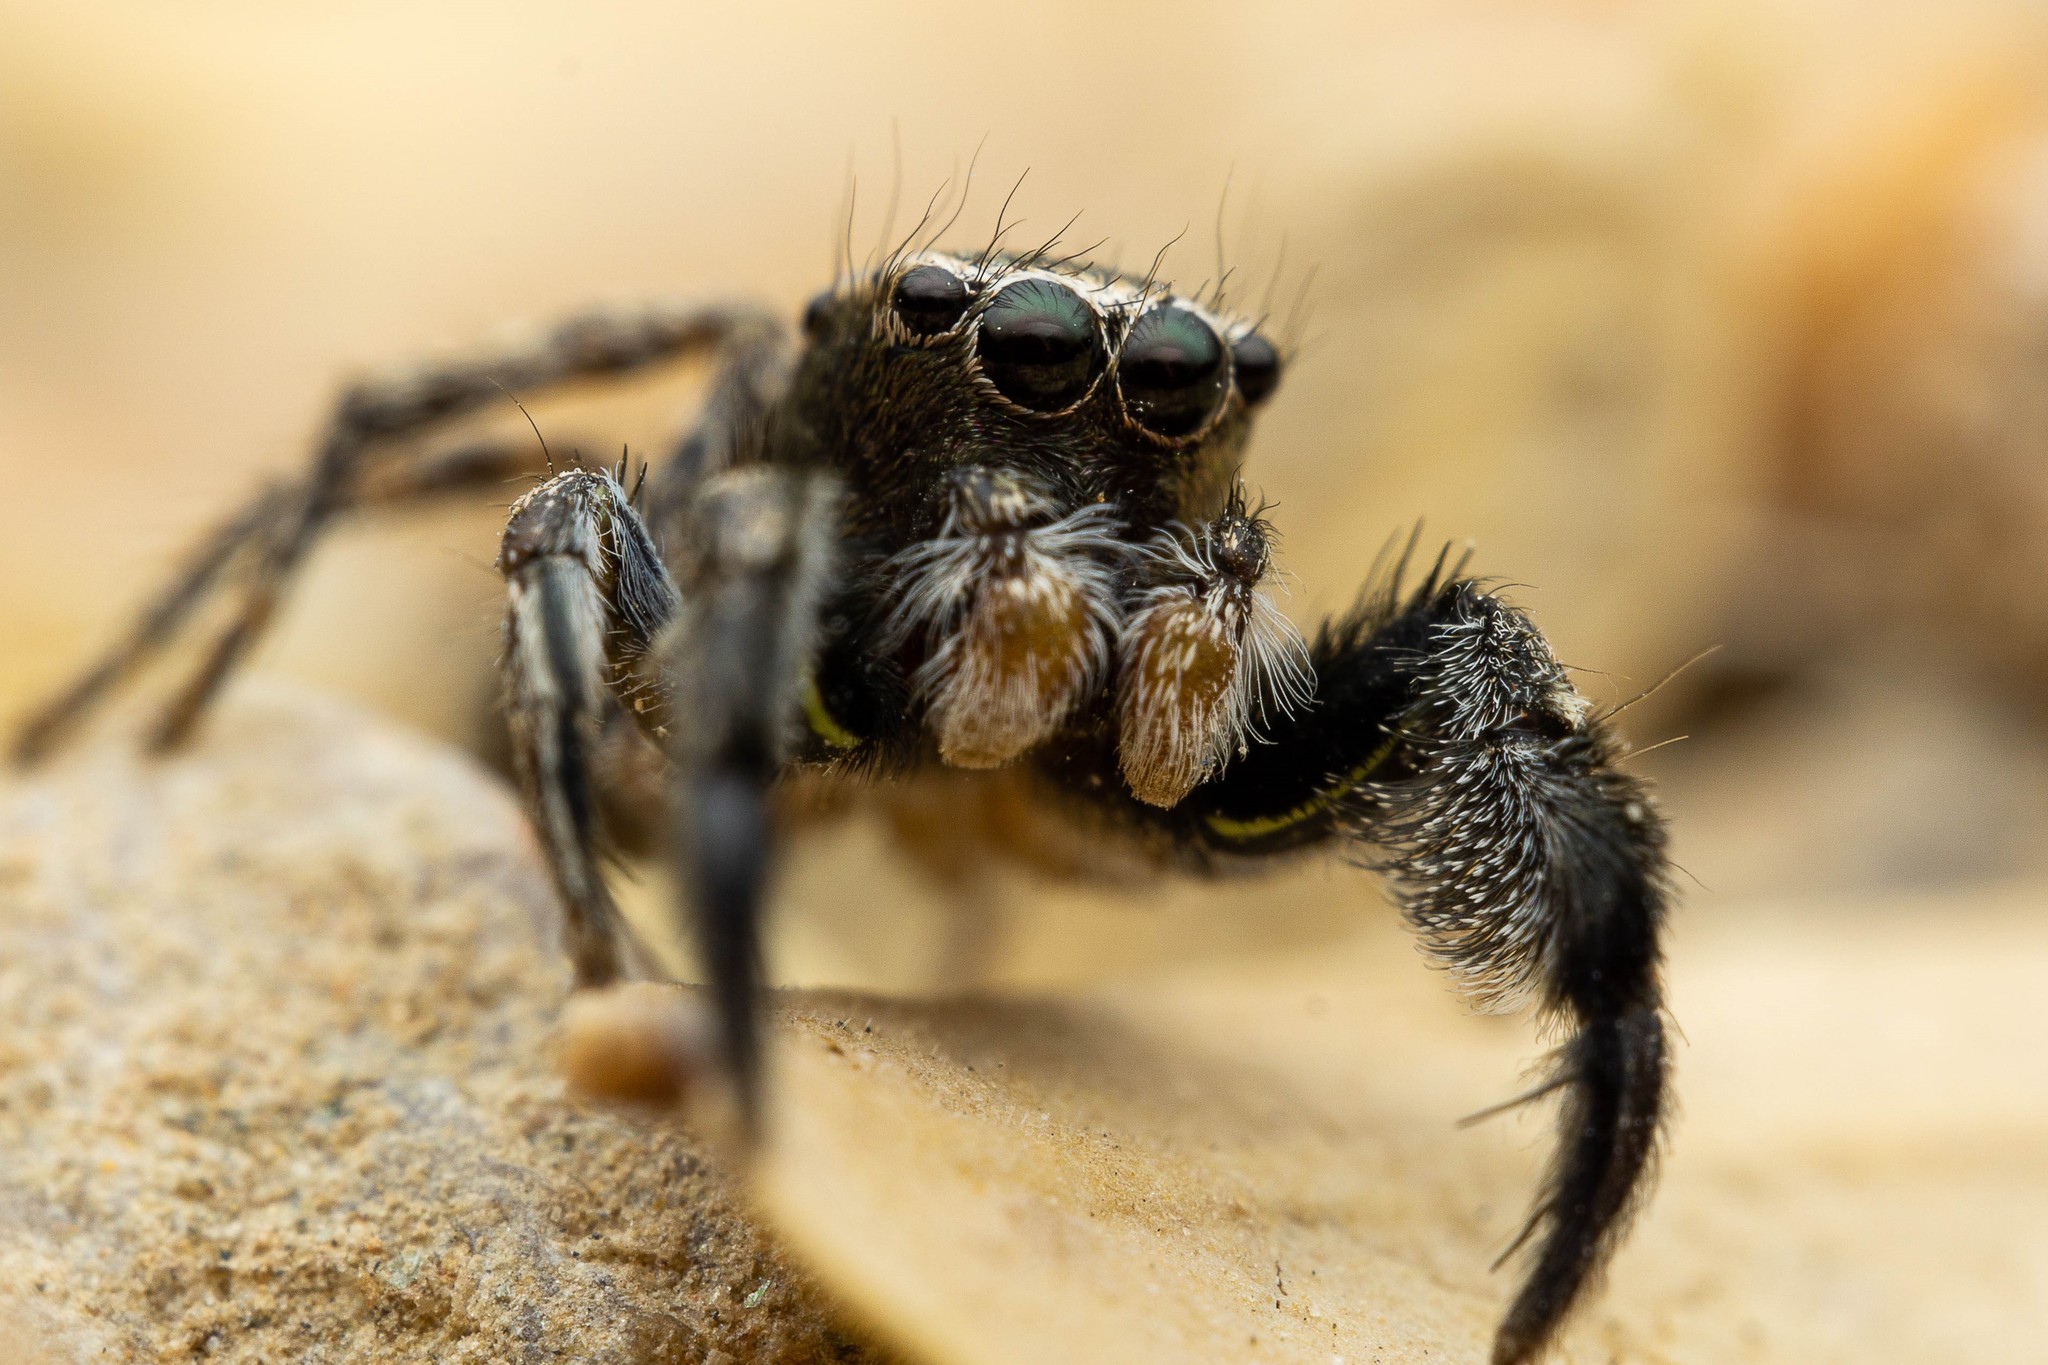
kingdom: Animalia
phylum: Arthropoda
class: Arachnida
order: Araneae
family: Salticidae
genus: Habronattus
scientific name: Habronattus hirsutus
